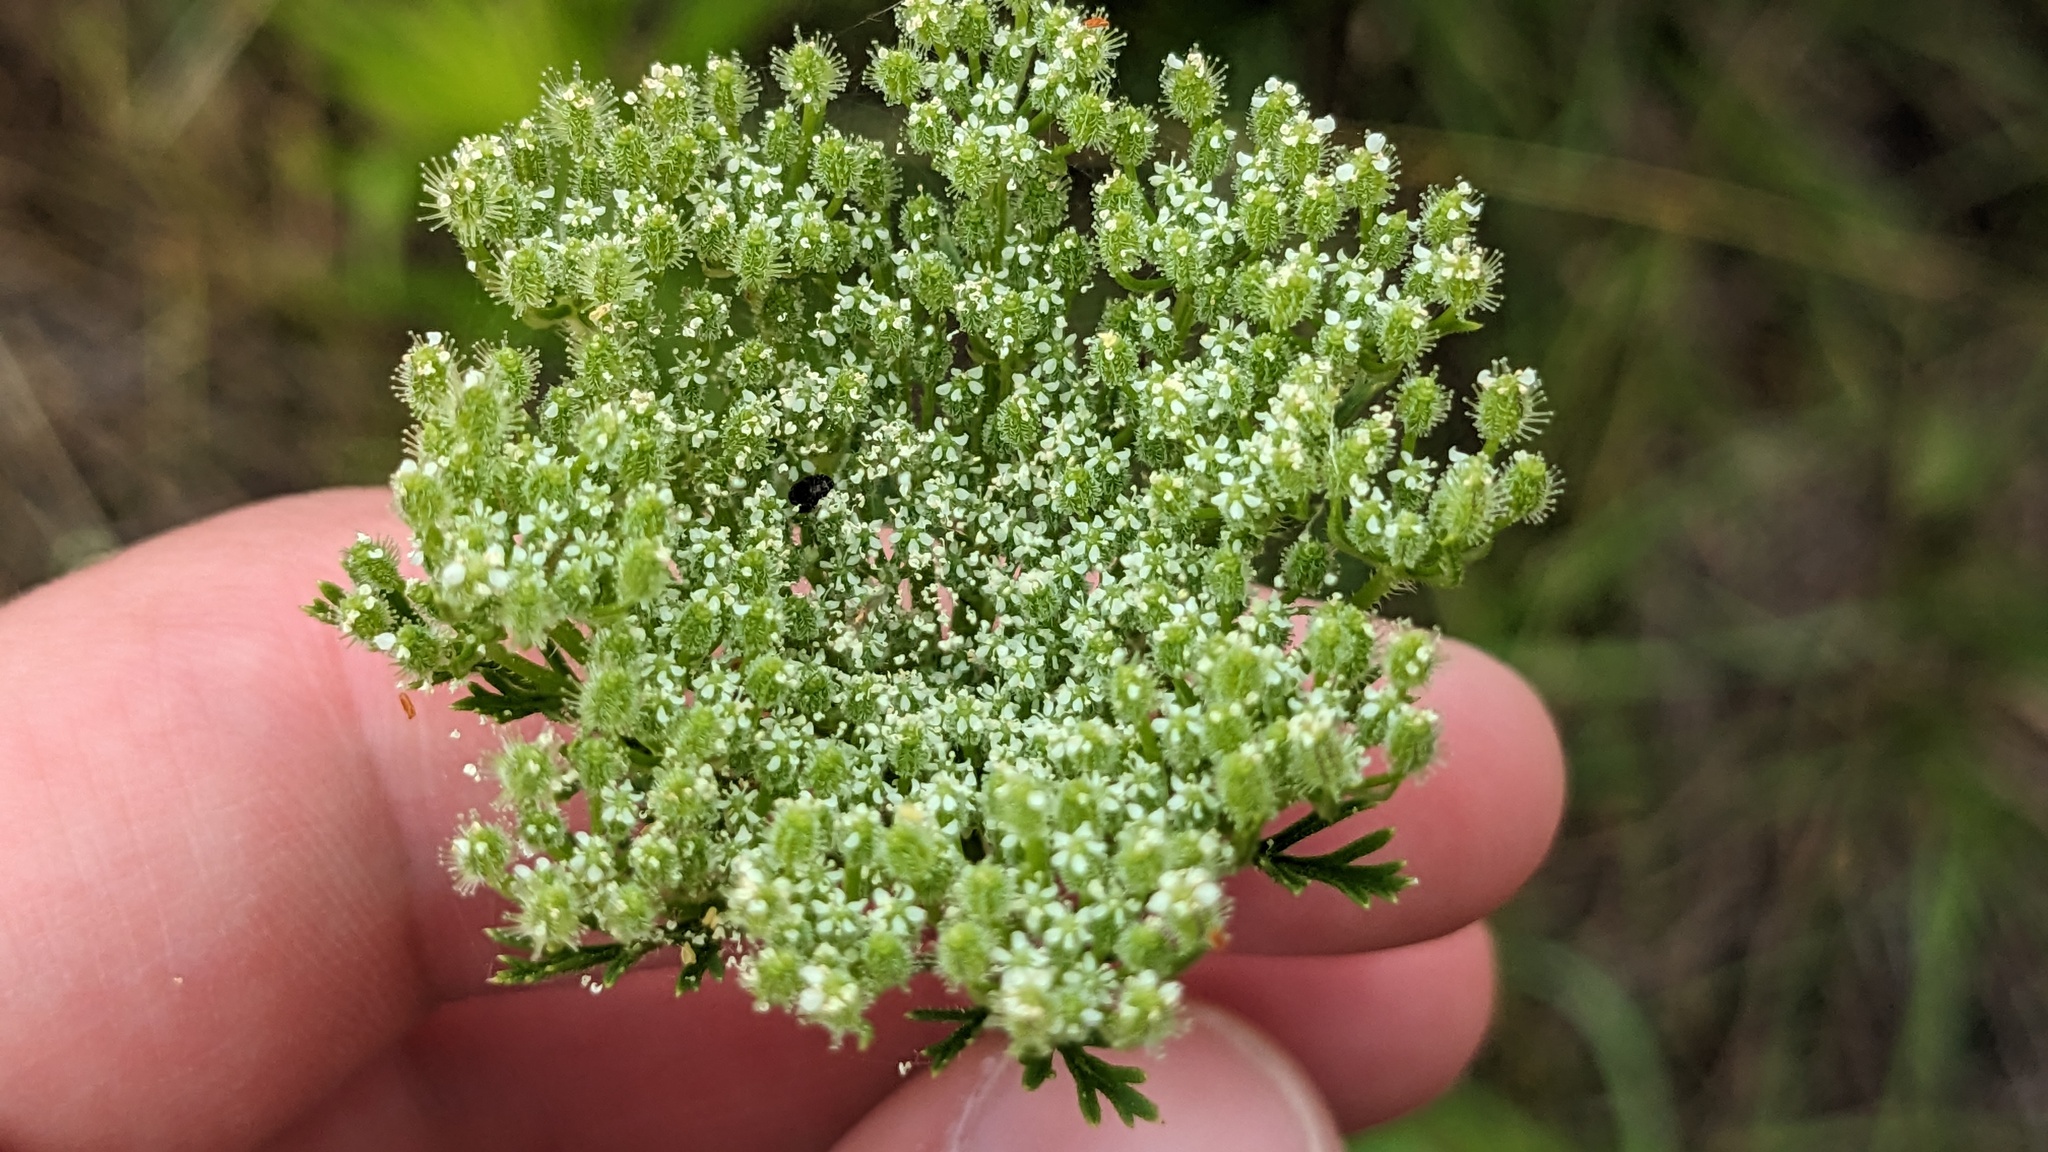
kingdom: Plantae
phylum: Tracheophyta
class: Magnoliopsida
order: Apiales
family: Apiaceae
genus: Daucus
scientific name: Daucus pusillus
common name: Southwest wild carrot
